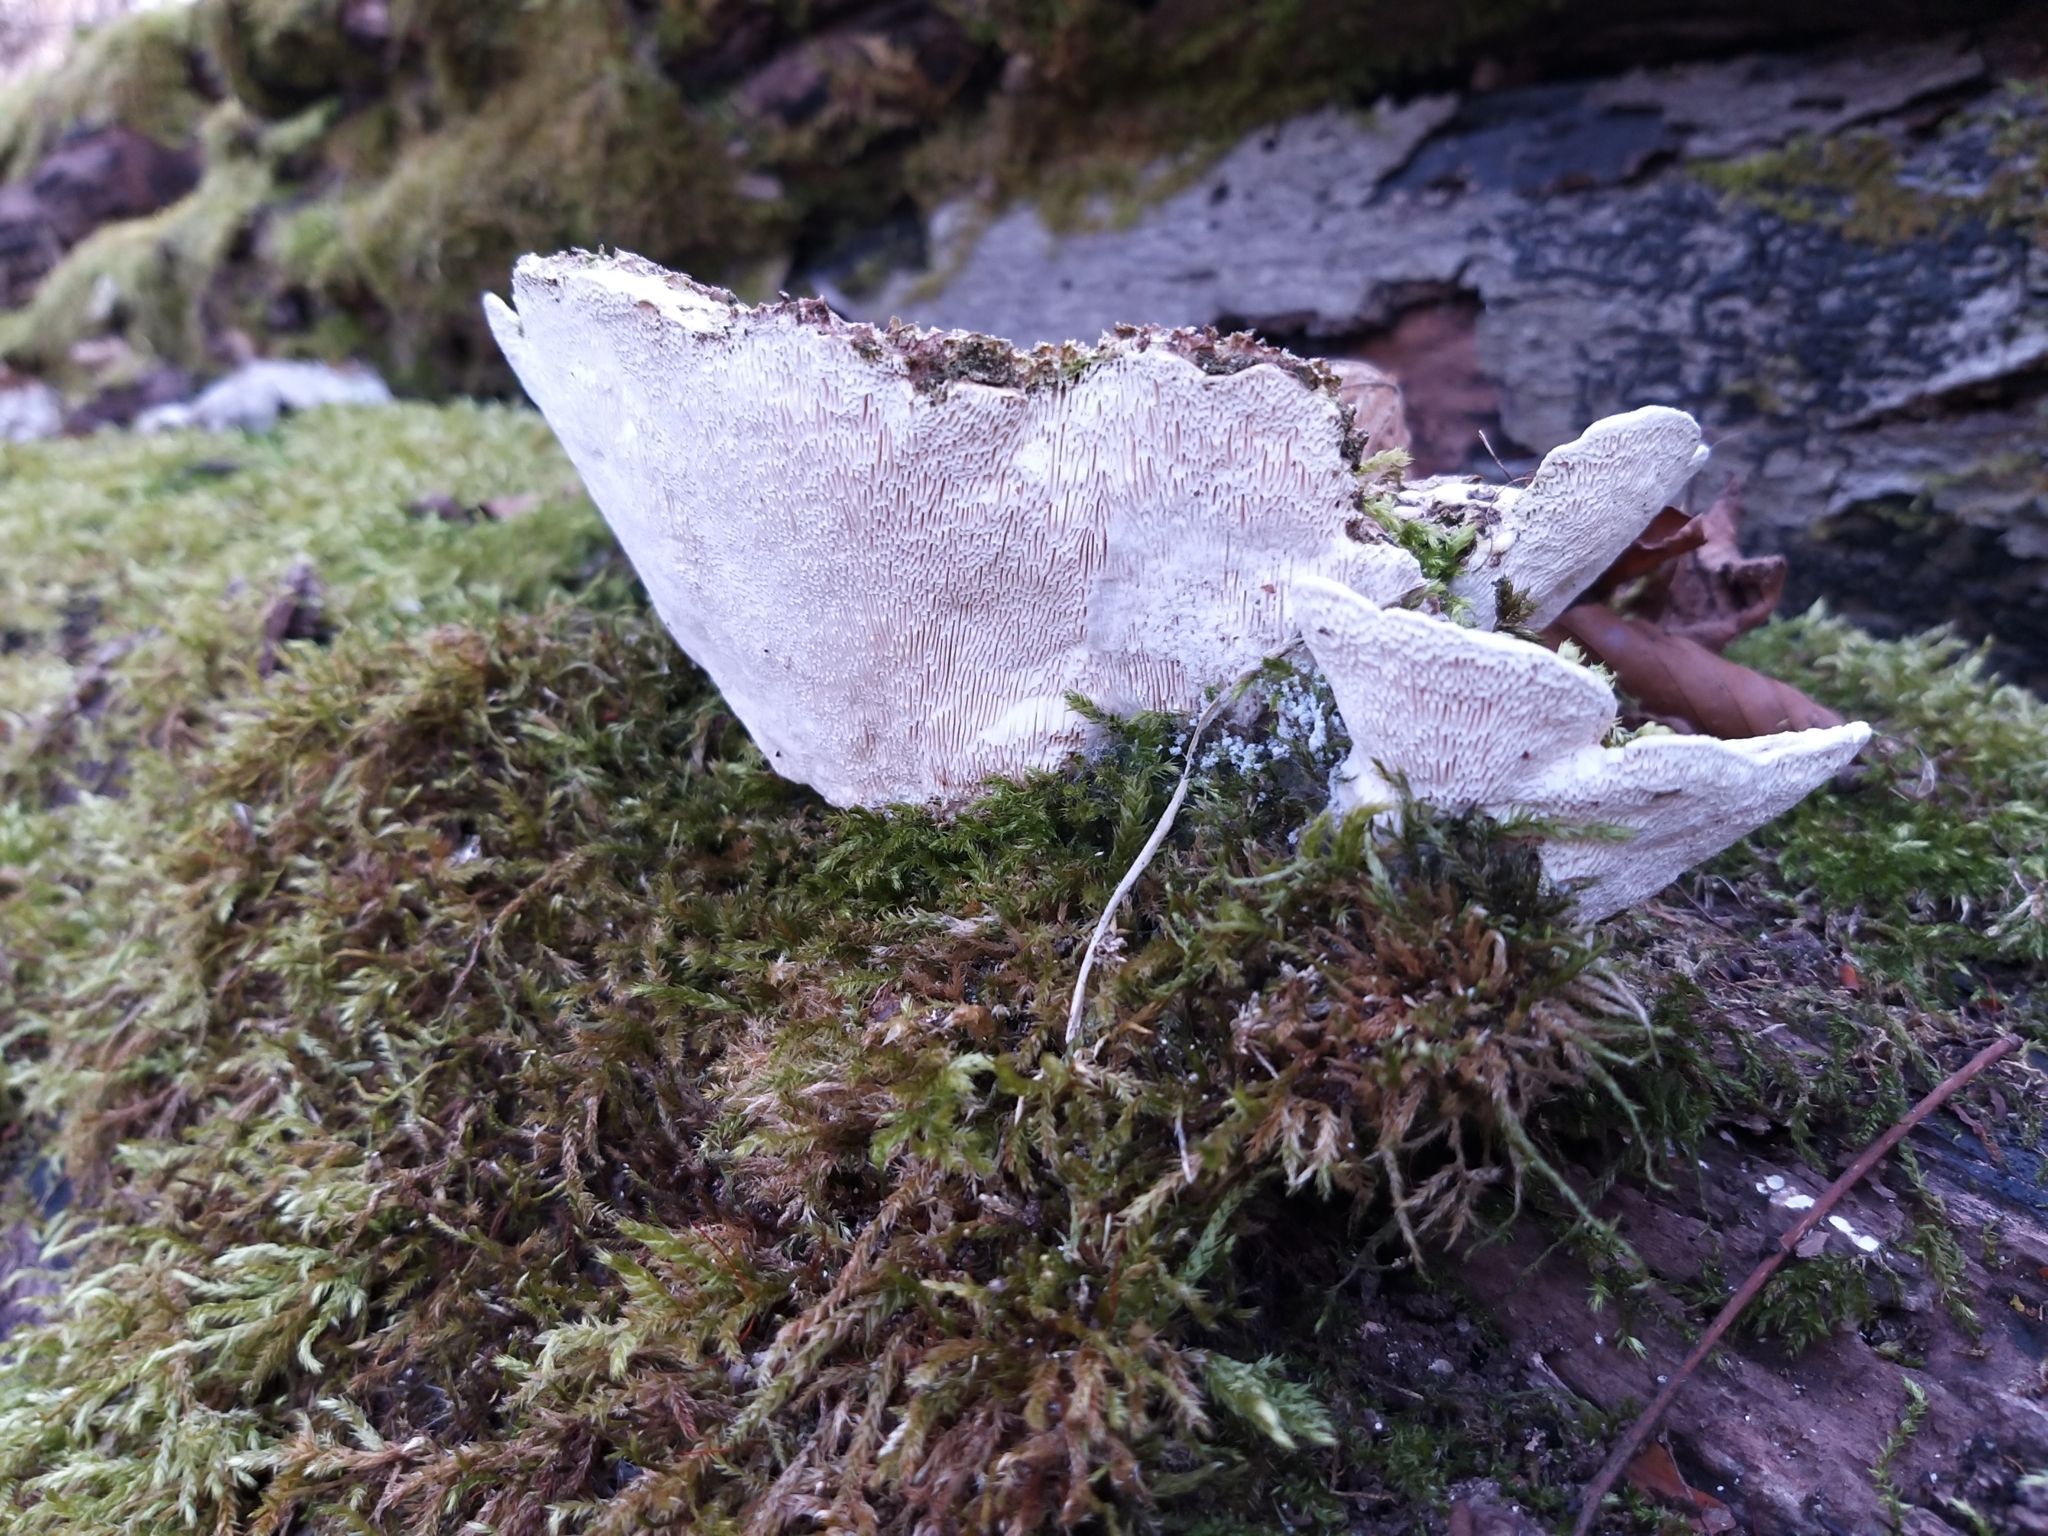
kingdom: Fungi
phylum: Basidiomycota
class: Agaricomycetes
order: Polyporales
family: Polyporaceae
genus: Trametes
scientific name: Trametes gibbosa
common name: Lumpy bracket
